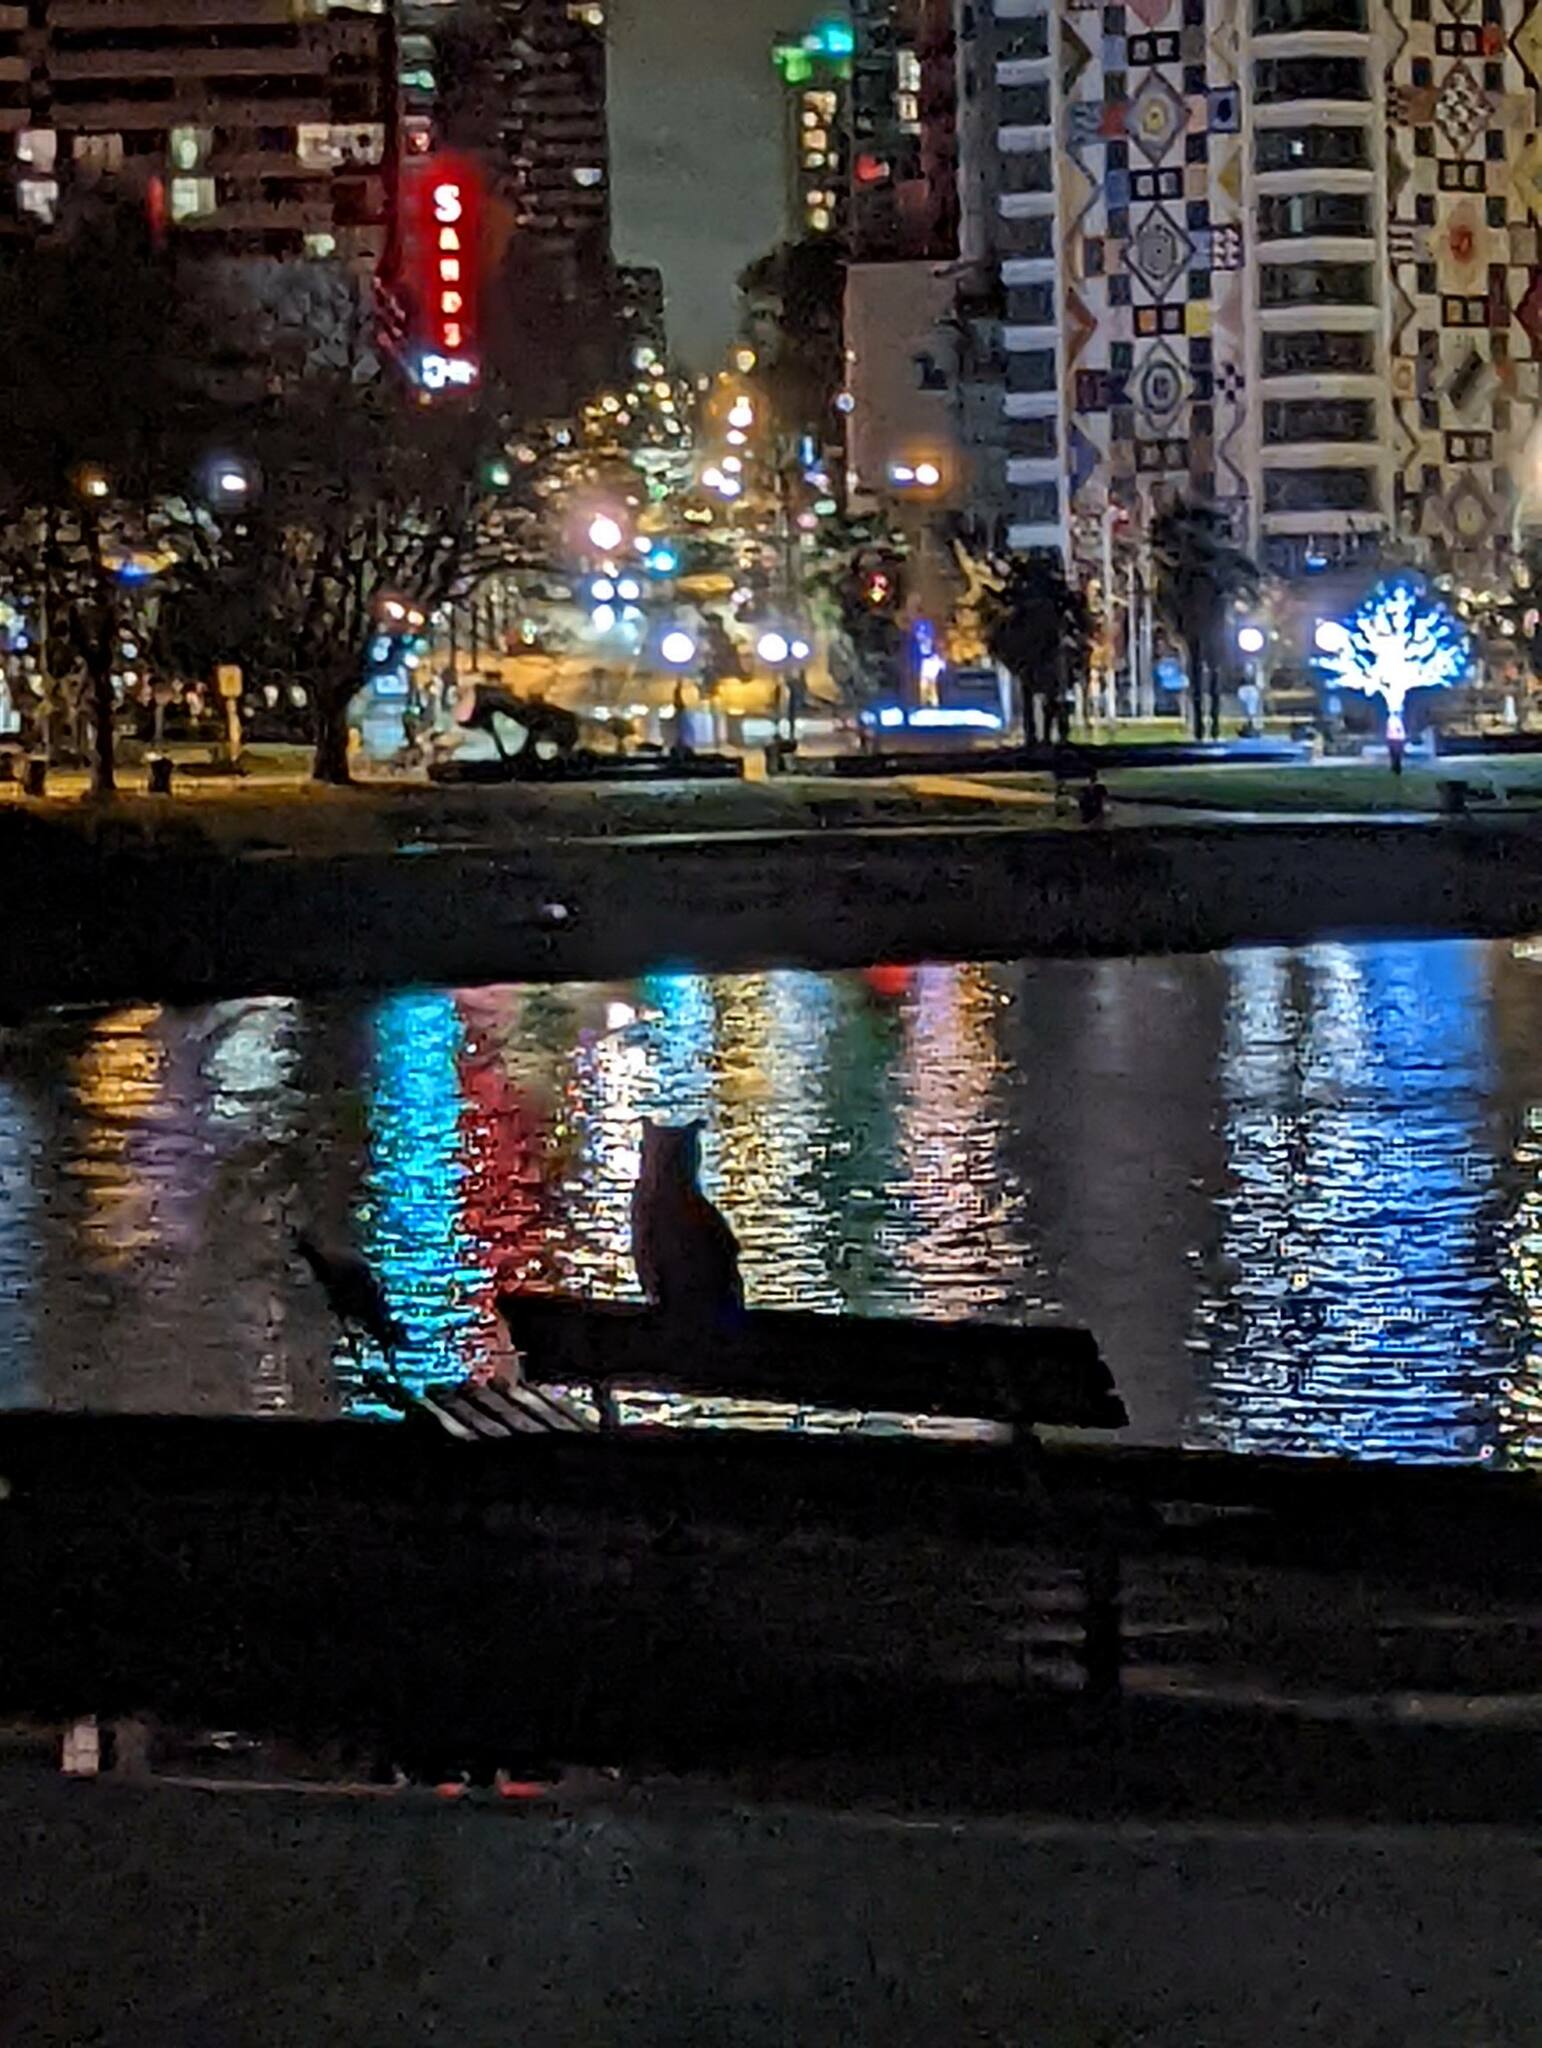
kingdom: Animalia
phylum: Chordata
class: Aves
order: Strigiformes
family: Strigidae
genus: Bubo
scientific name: Bubo virginianus
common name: Great horned owl
